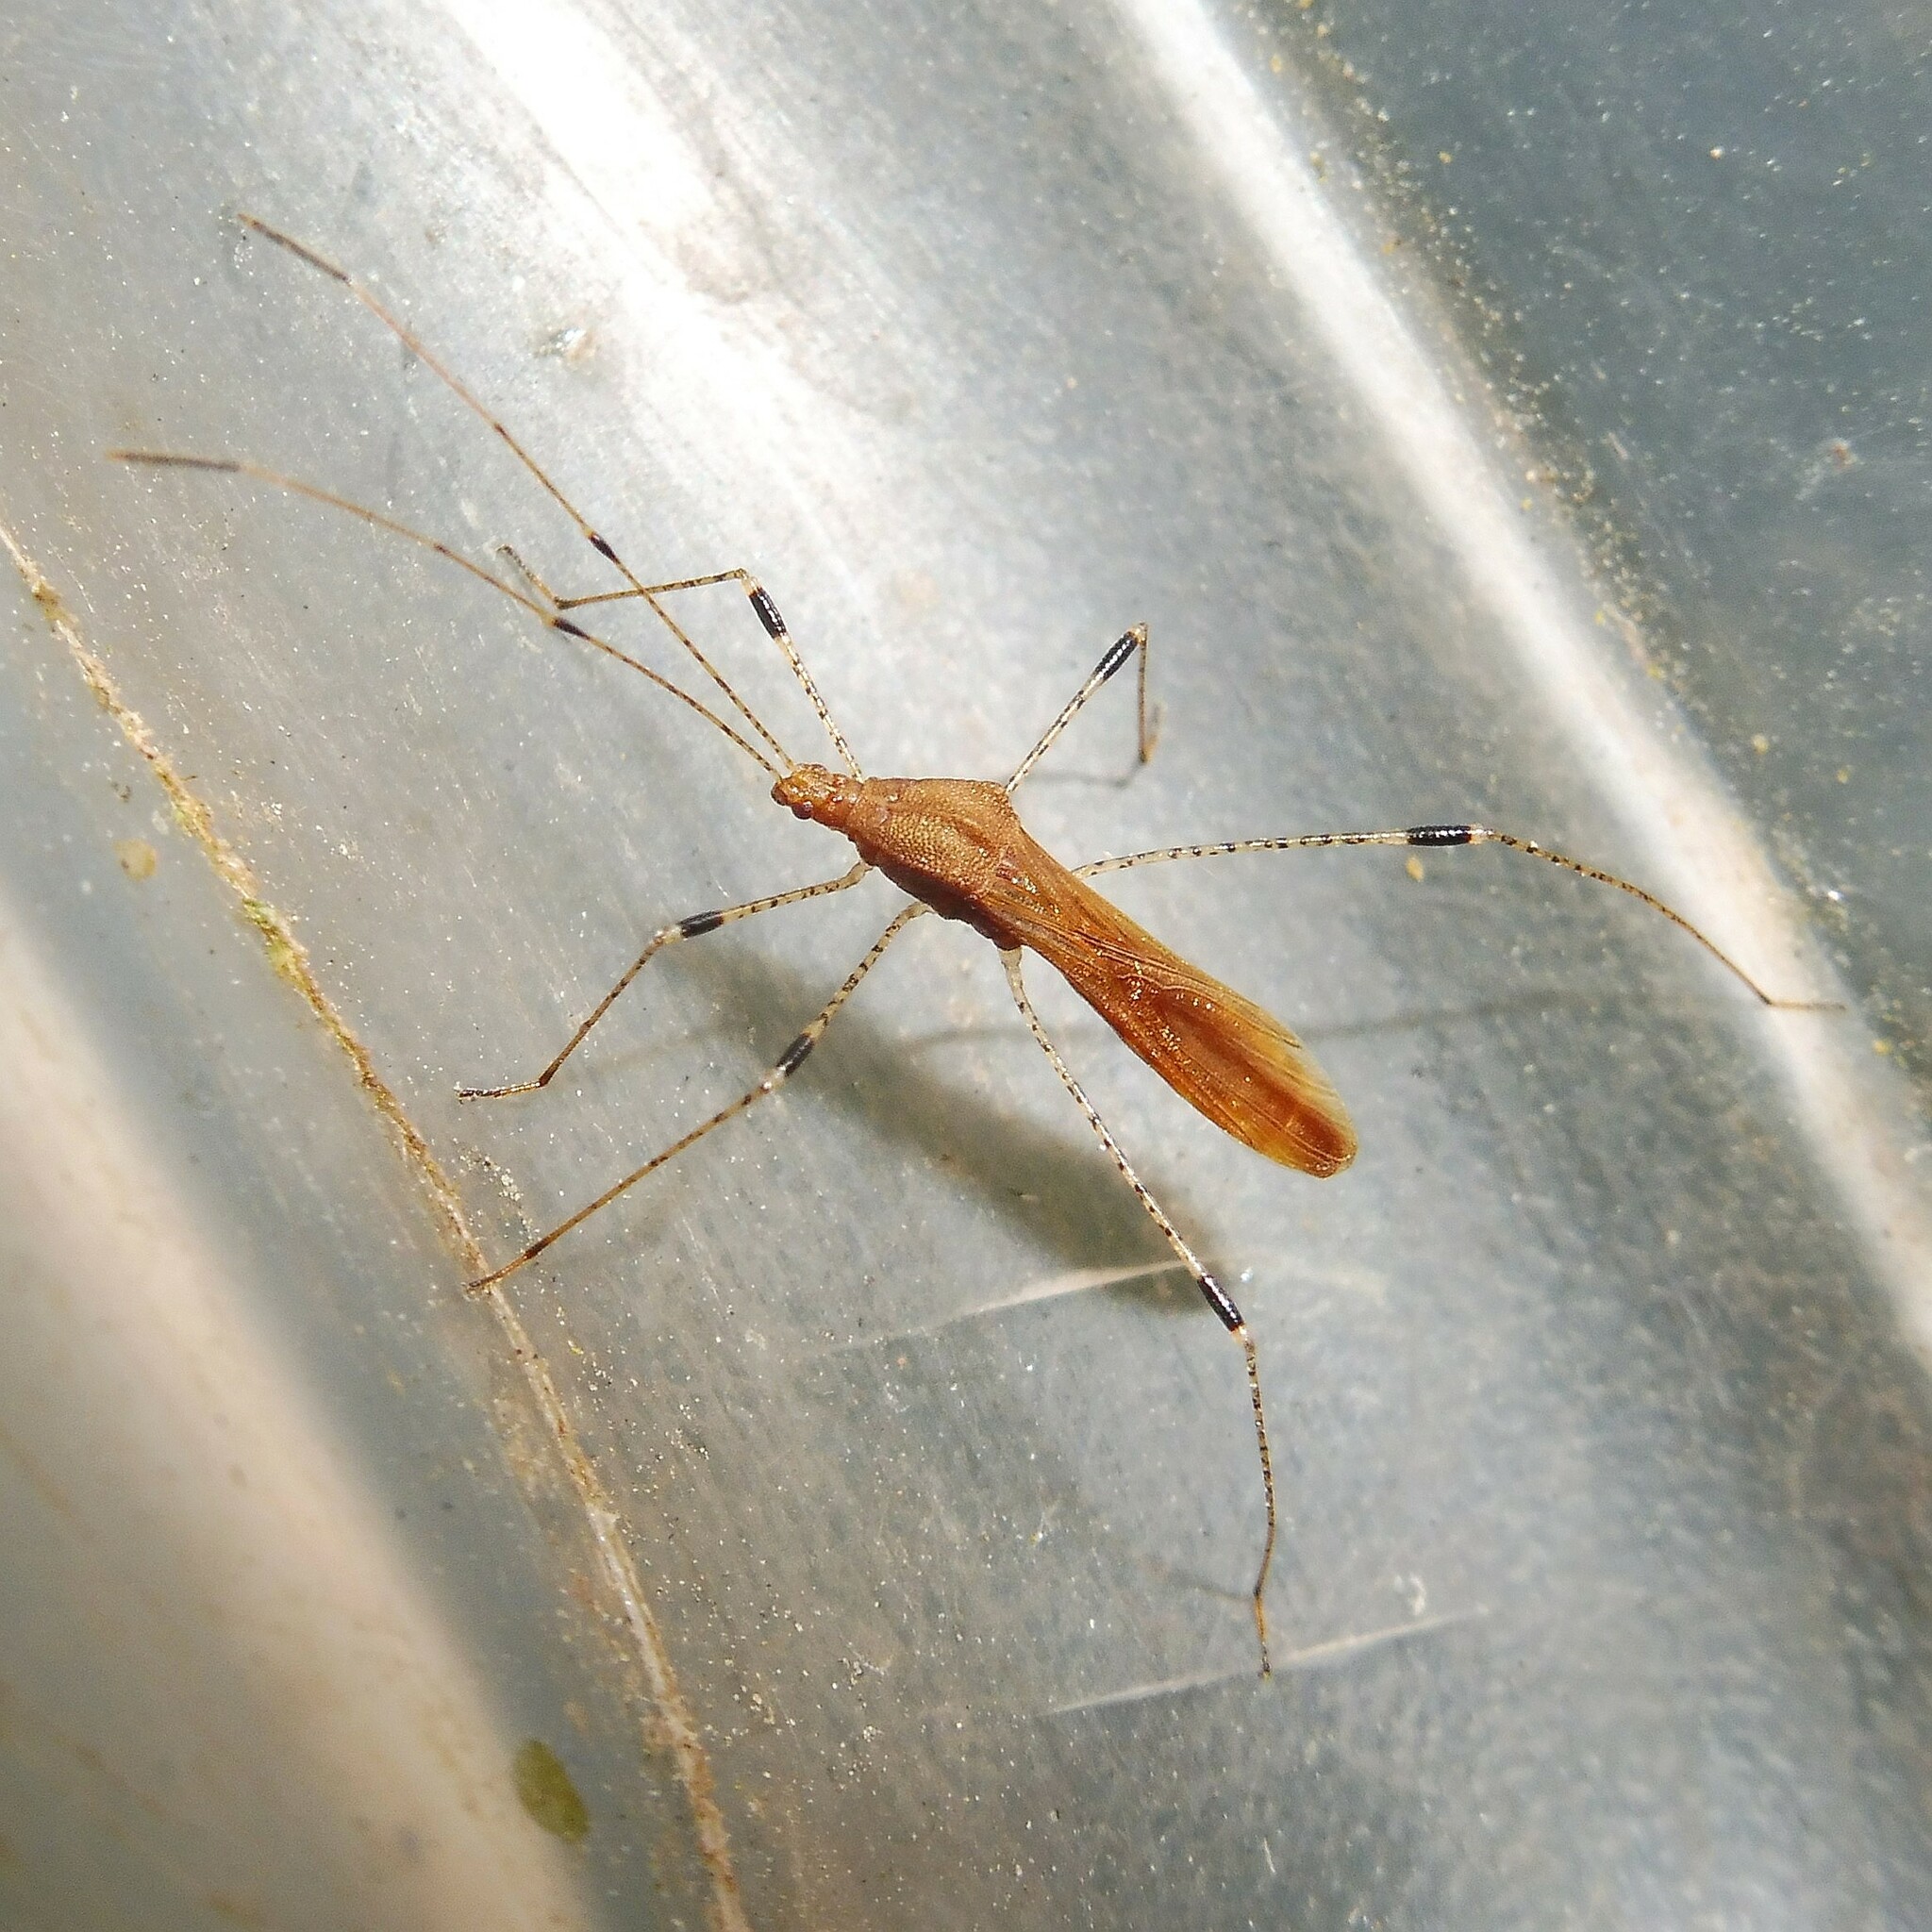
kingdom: Animalia
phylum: Arthropoda
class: Insecta
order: Hemiptera
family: Berytidae
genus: Metatropis
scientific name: Metatropis rufescens
